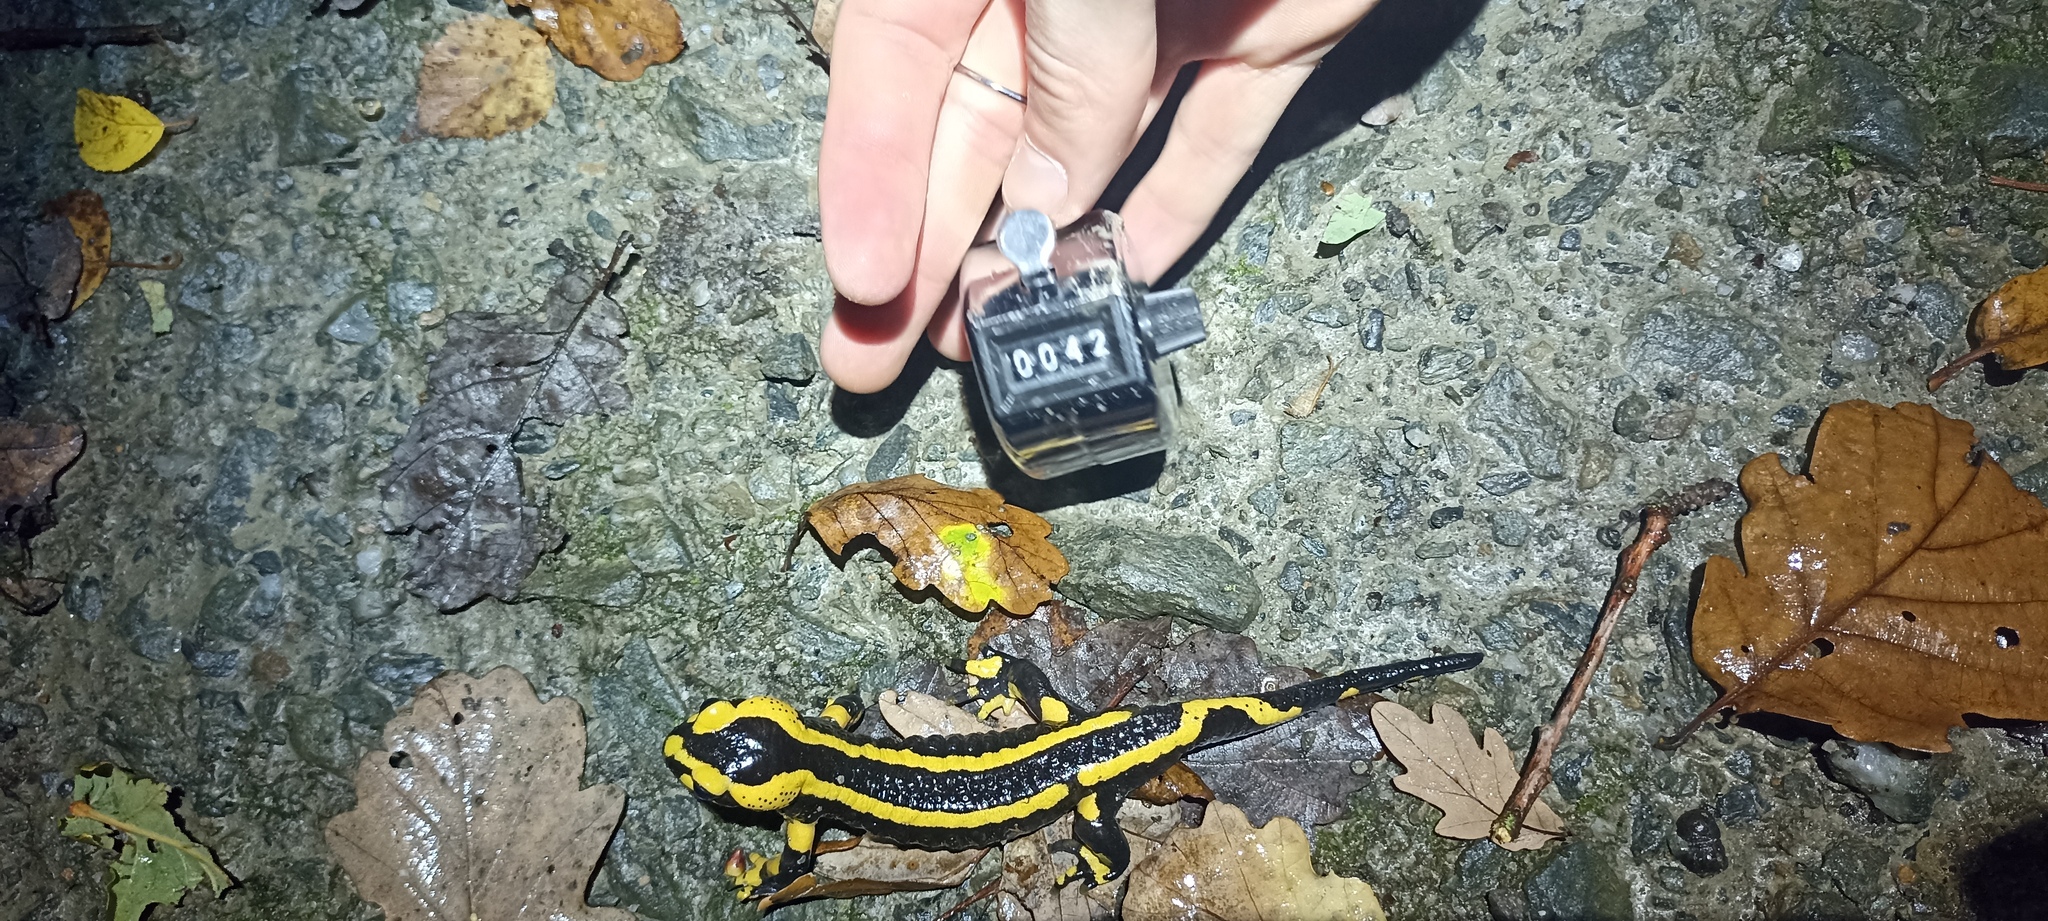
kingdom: Animalia
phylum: Chordata
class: Amphibia
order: Caudata
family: Salamandridae
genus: Salamandra
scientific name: Salamandra salamandra
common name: Fire salamander
